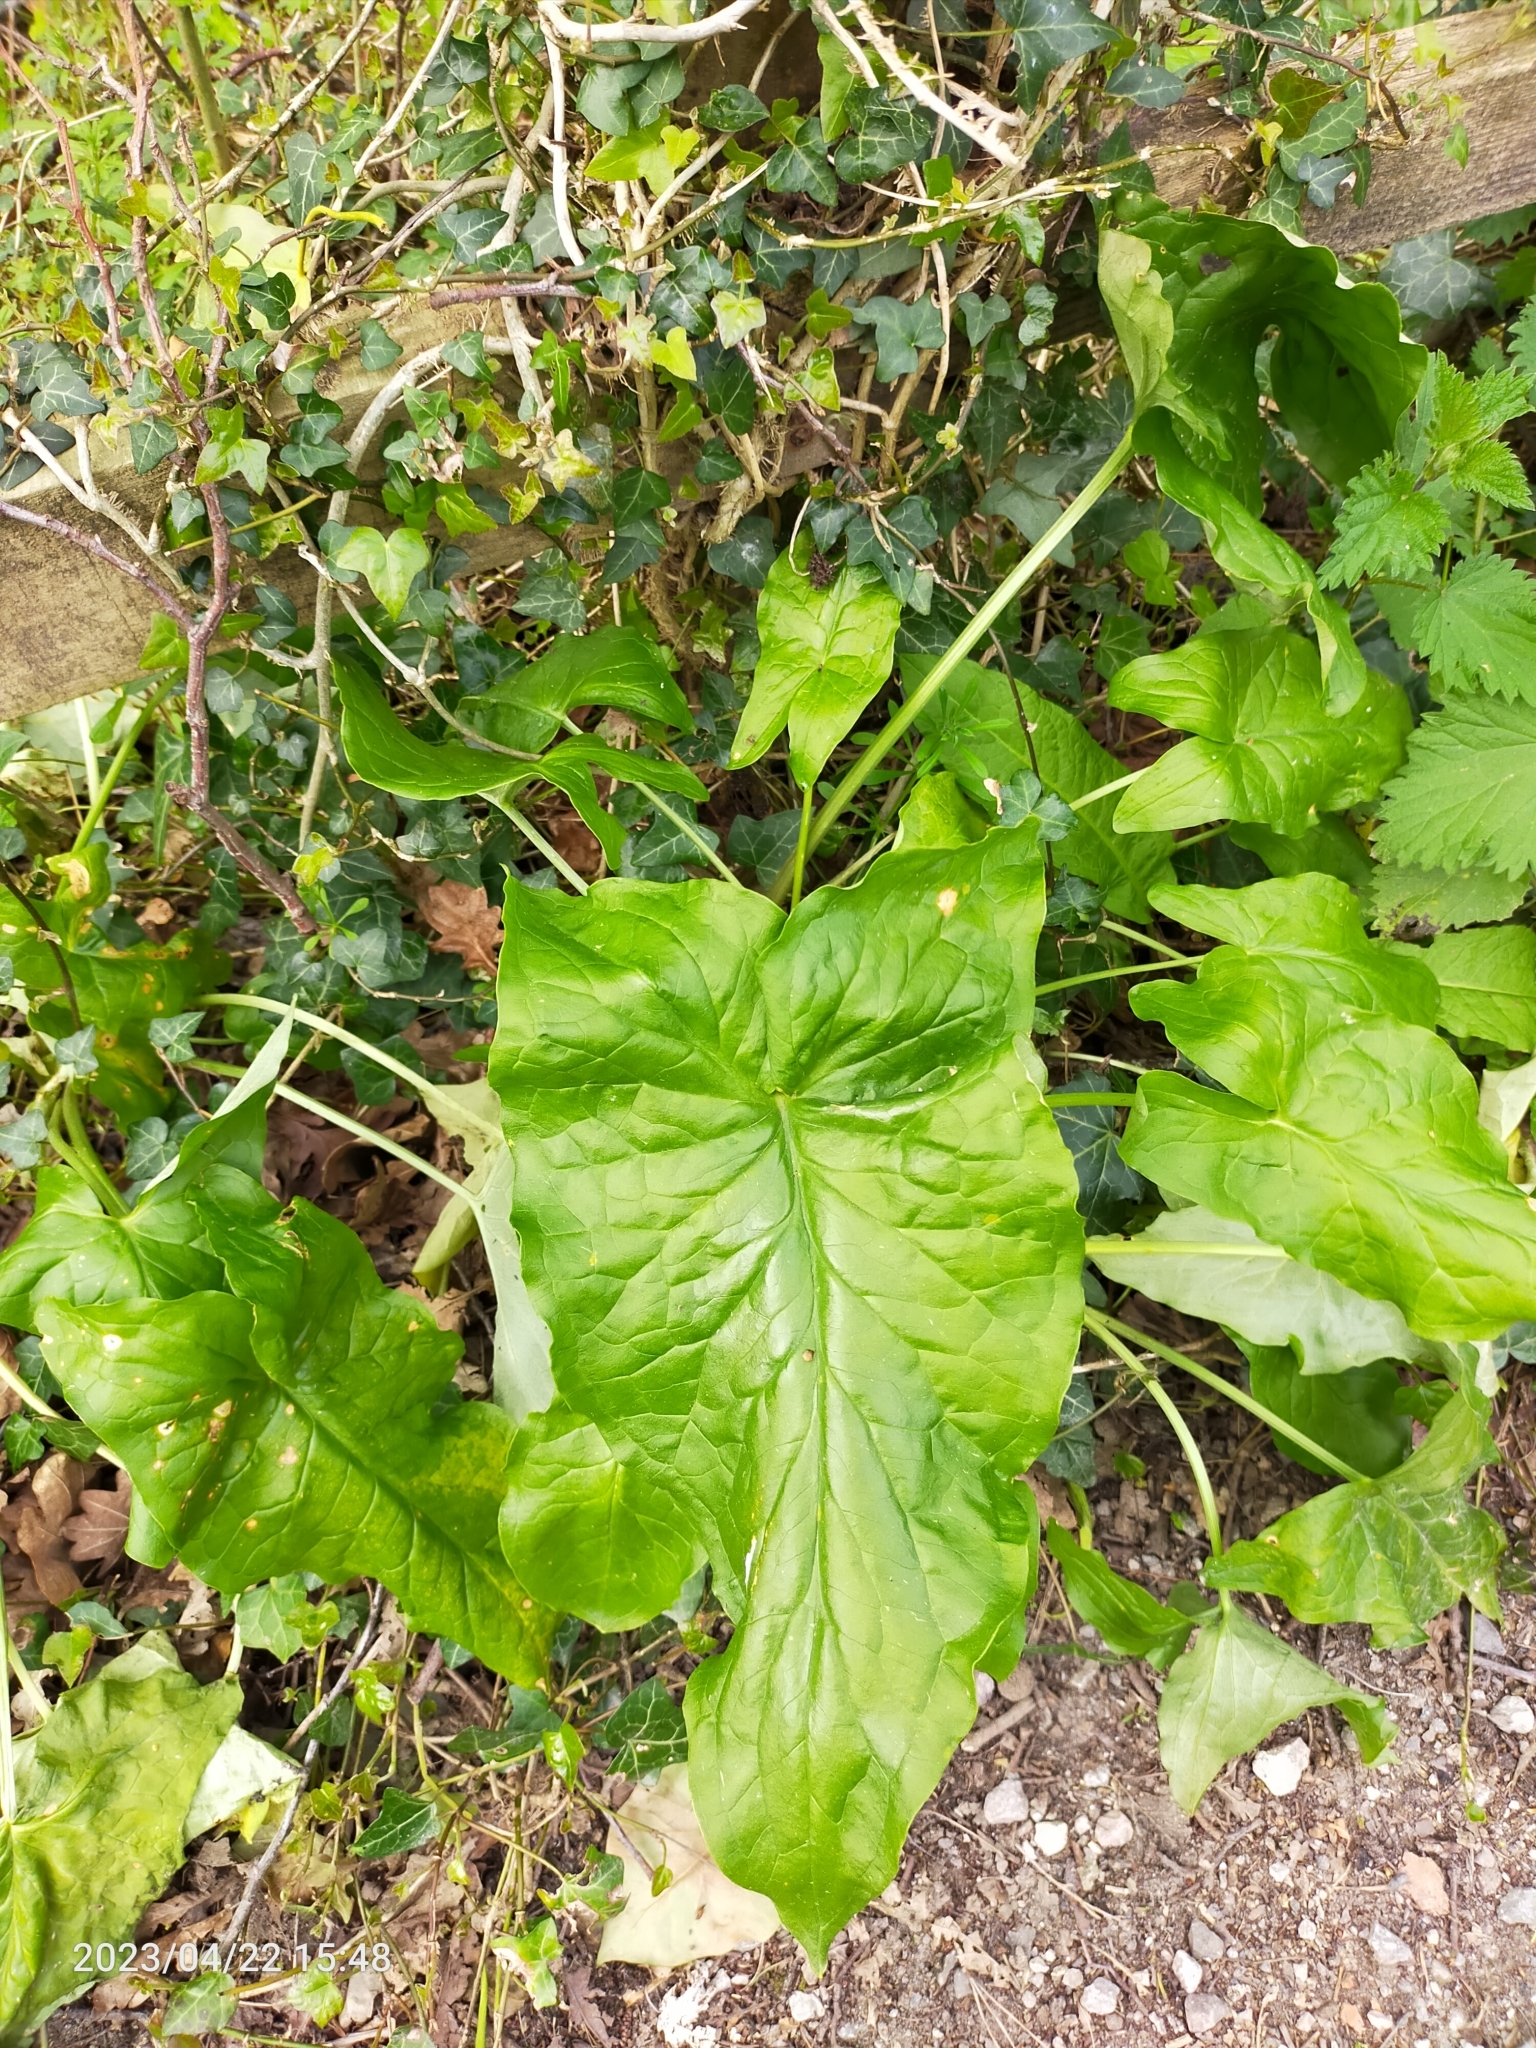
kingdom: Plantae
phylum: Tracheophyta
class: Liliopsida
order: Alismatales
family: Araceae
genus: Arum
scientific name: Arum maculatum
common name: Lords-and-ladies
